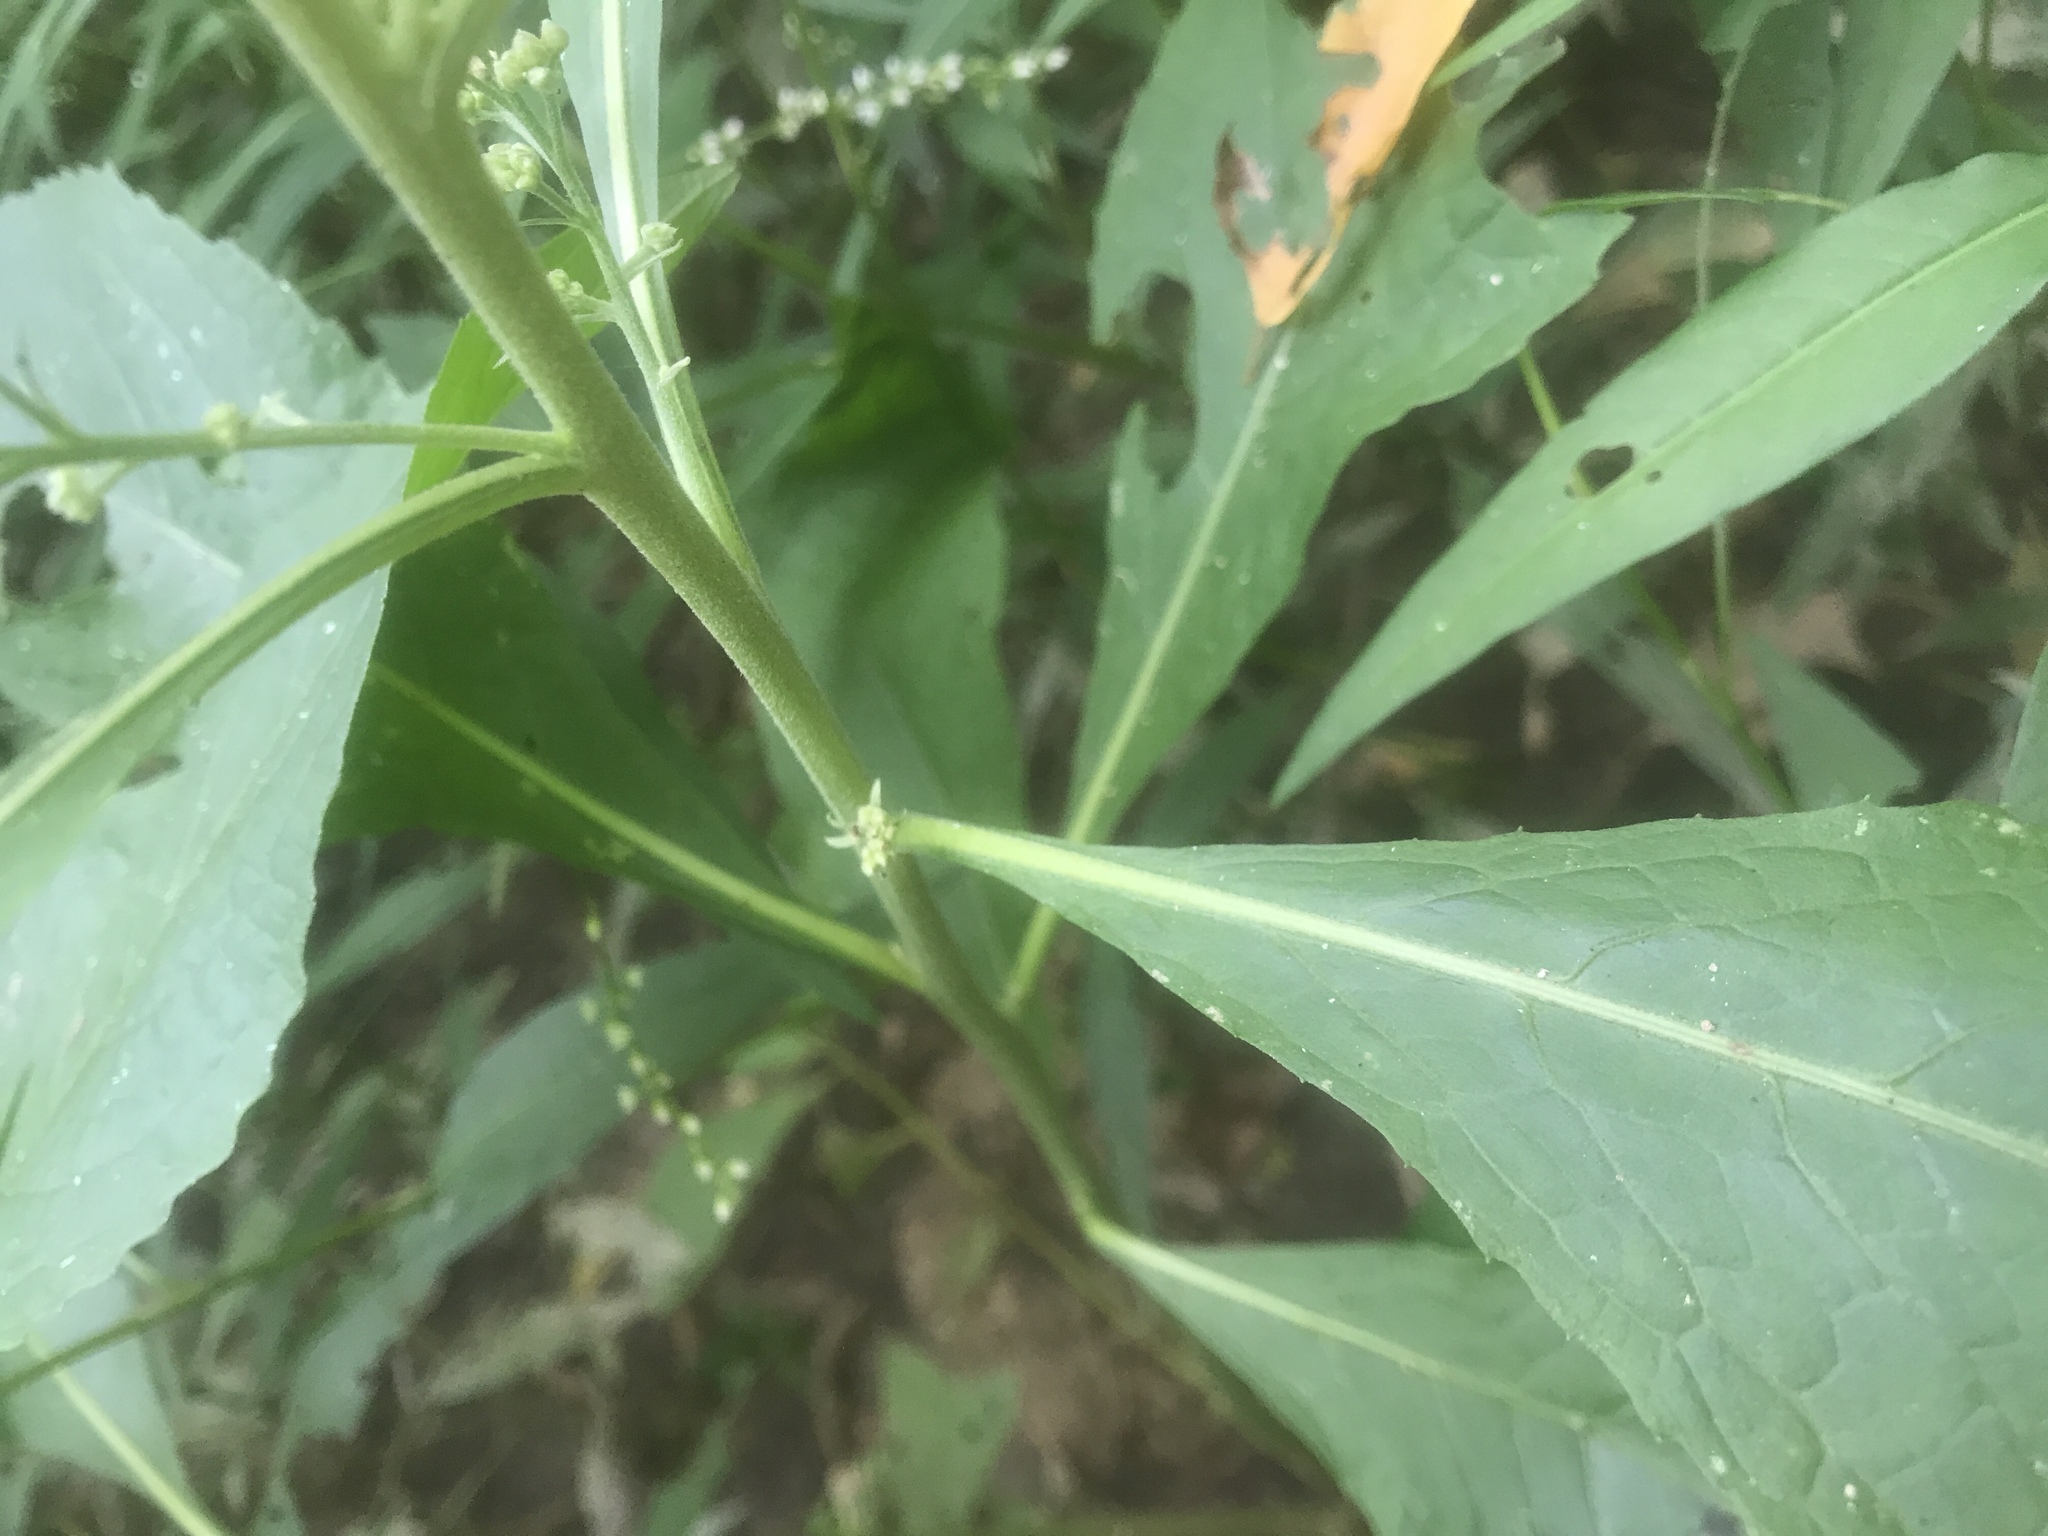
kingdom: Plantae
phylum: Tracheophyta
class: Magnoliopsida
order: Asterales
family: Asteraceae
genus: Pluchea
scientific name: Pluchea camphorata
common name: Camphor pluchea
